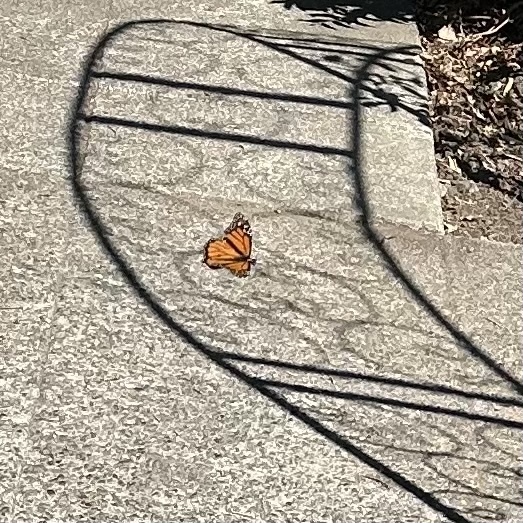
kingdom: Animalia
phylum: Arthropoda
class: Insecta
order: Lepidoptera
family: Nymphalidae
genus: Danaus
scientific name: Danaus plexippus
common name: Monarch
